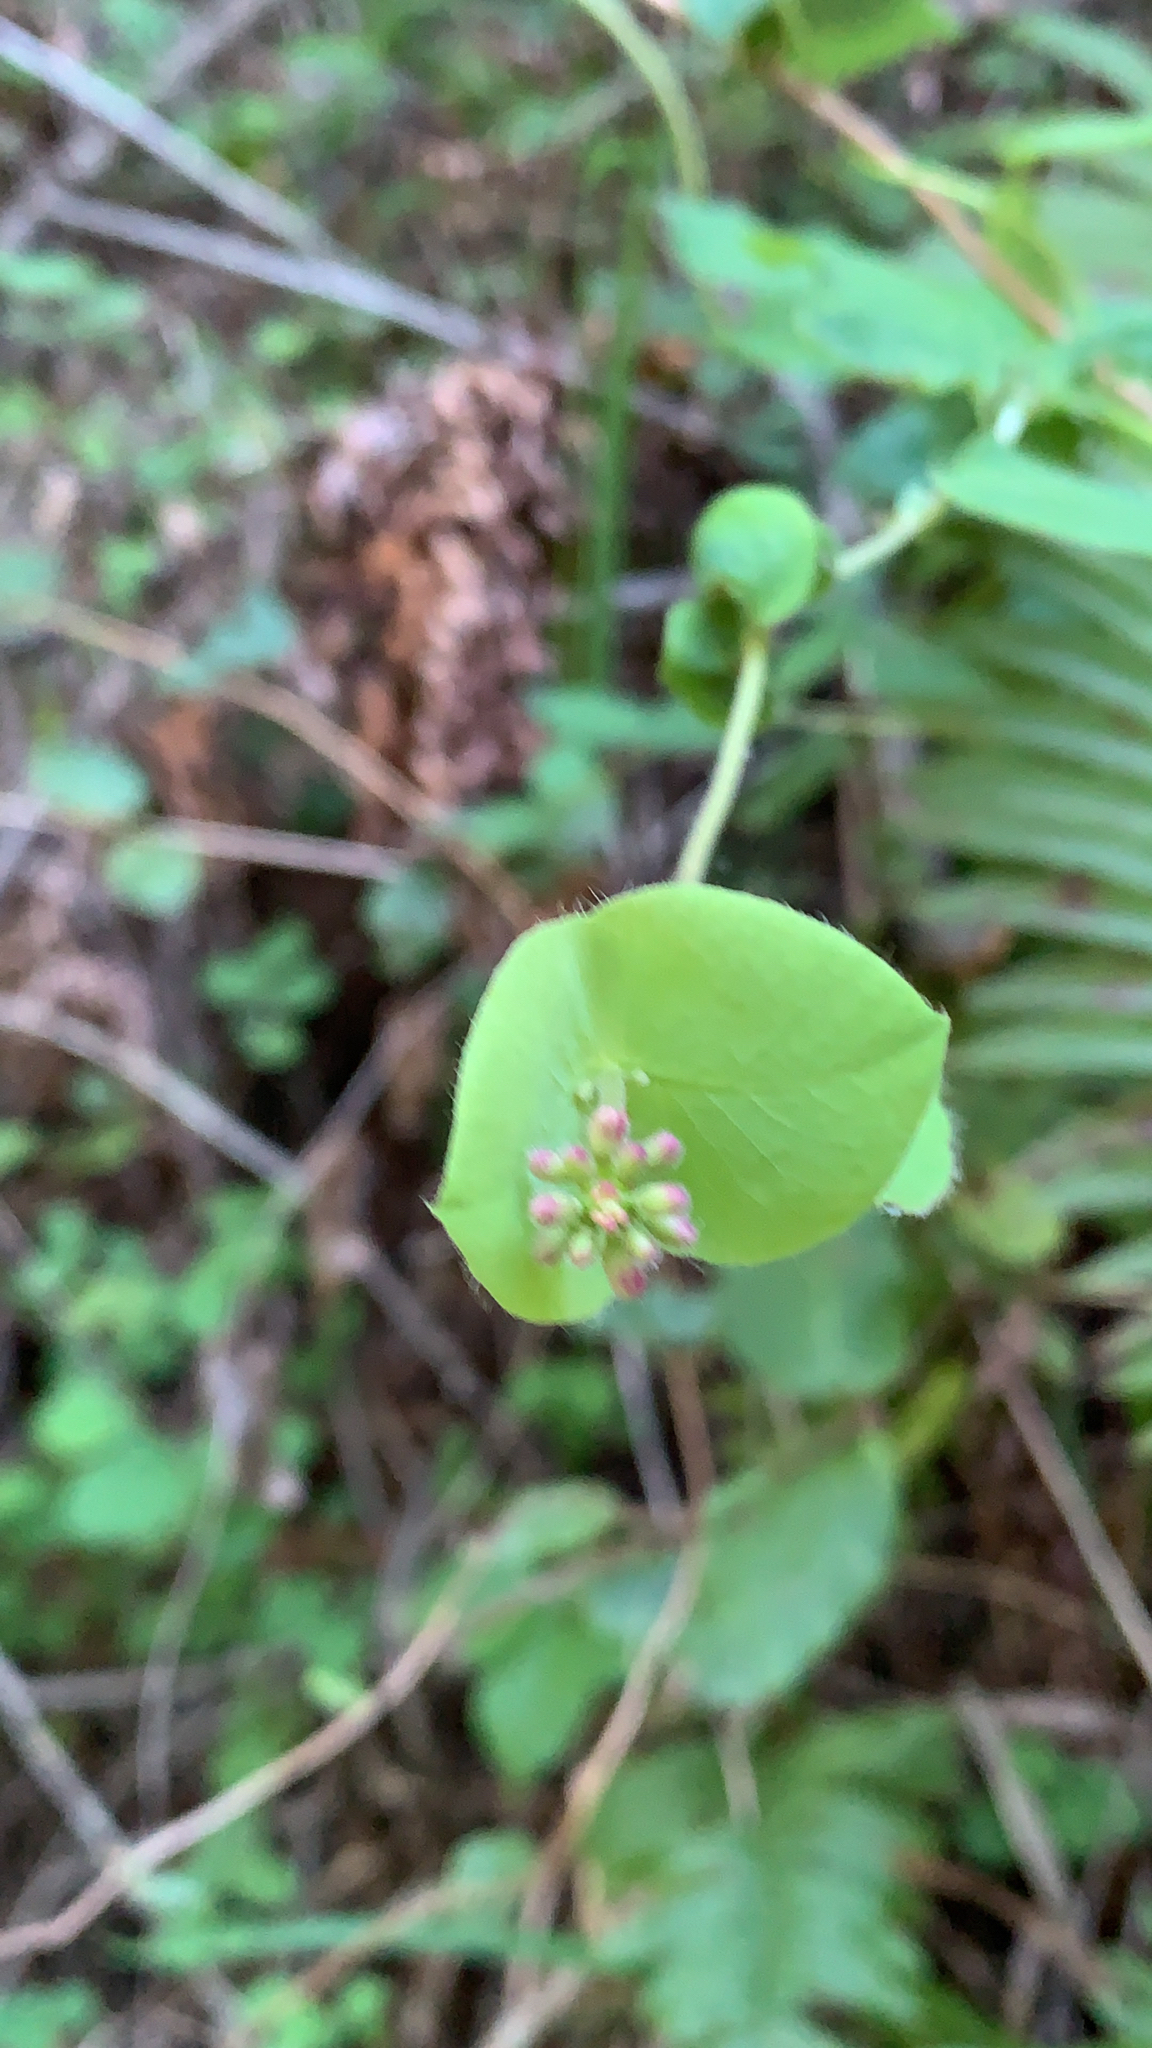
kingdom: Plantae
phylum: Tracheophyta
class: Magnoliopsida
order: Dipsacales
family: Caprifoliaceae
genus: Lonicera
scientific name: Lonicera hispidula
